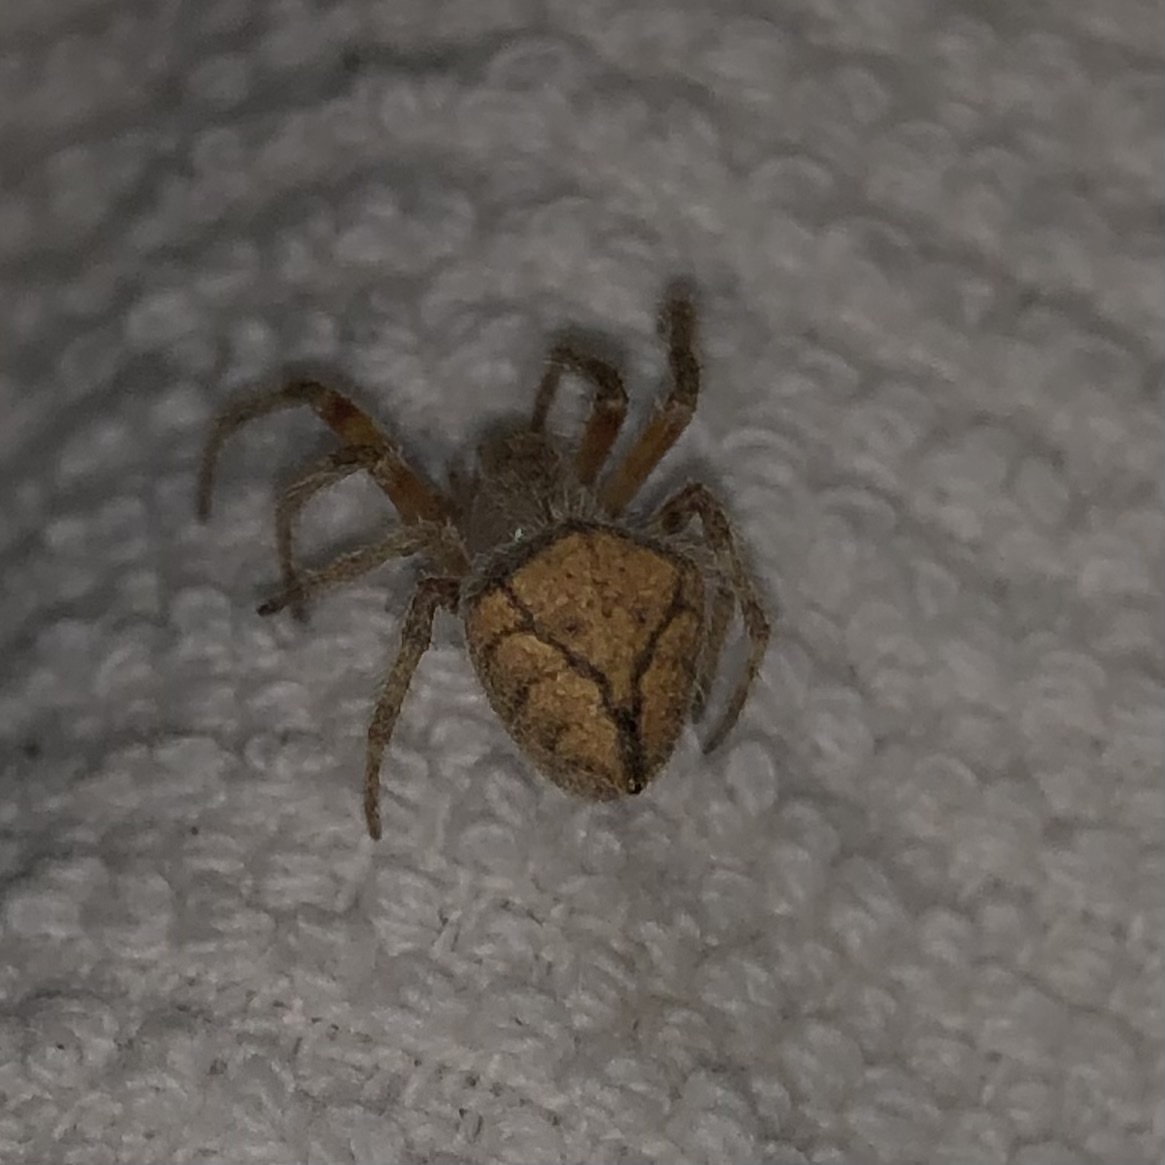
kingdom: Animalia
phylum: Arthropoda
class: Arachnida
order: Araneae
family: Araneidae
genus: Eriophora
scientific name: Eriophora edax
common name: Orb weavers
